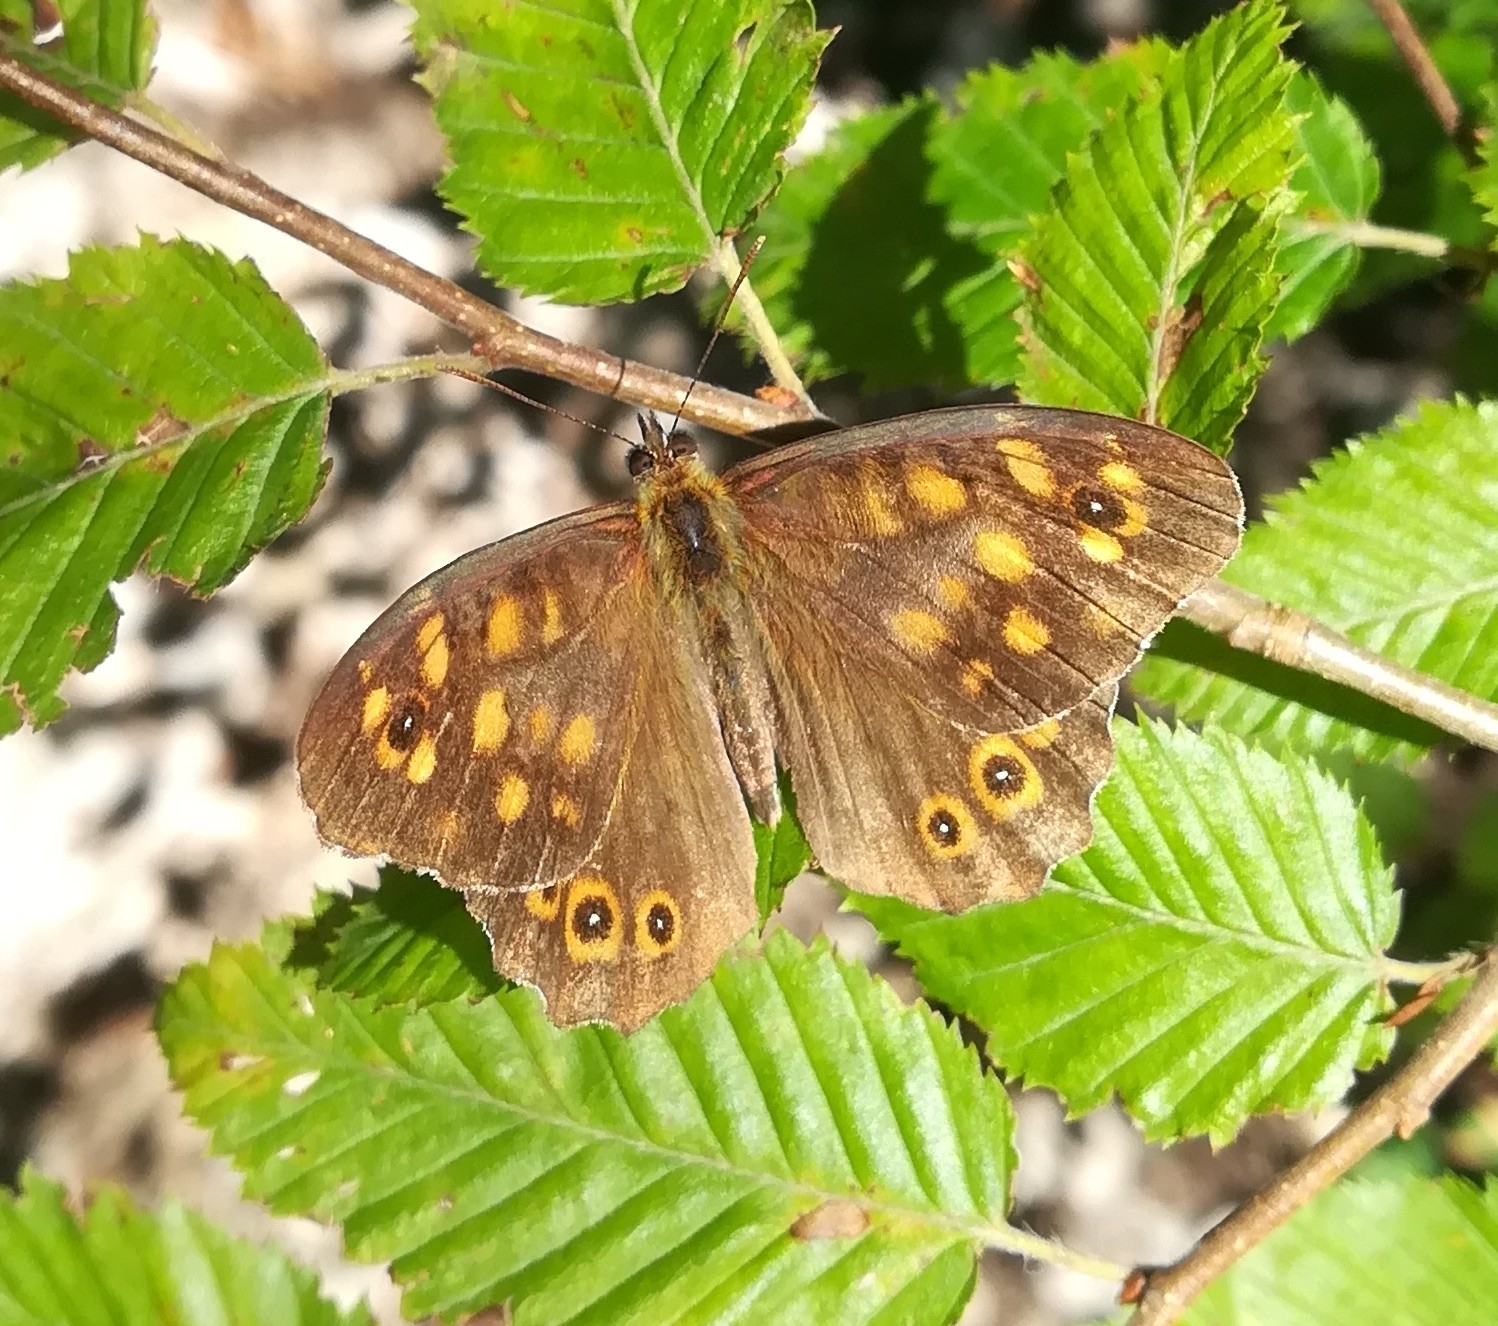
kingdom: Animalia
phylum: Arthropoda
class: Insecta
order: Lepidoptera
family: Nymphalidae
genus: Pararge
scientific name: Pararge aegeria
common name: Speckled wood
